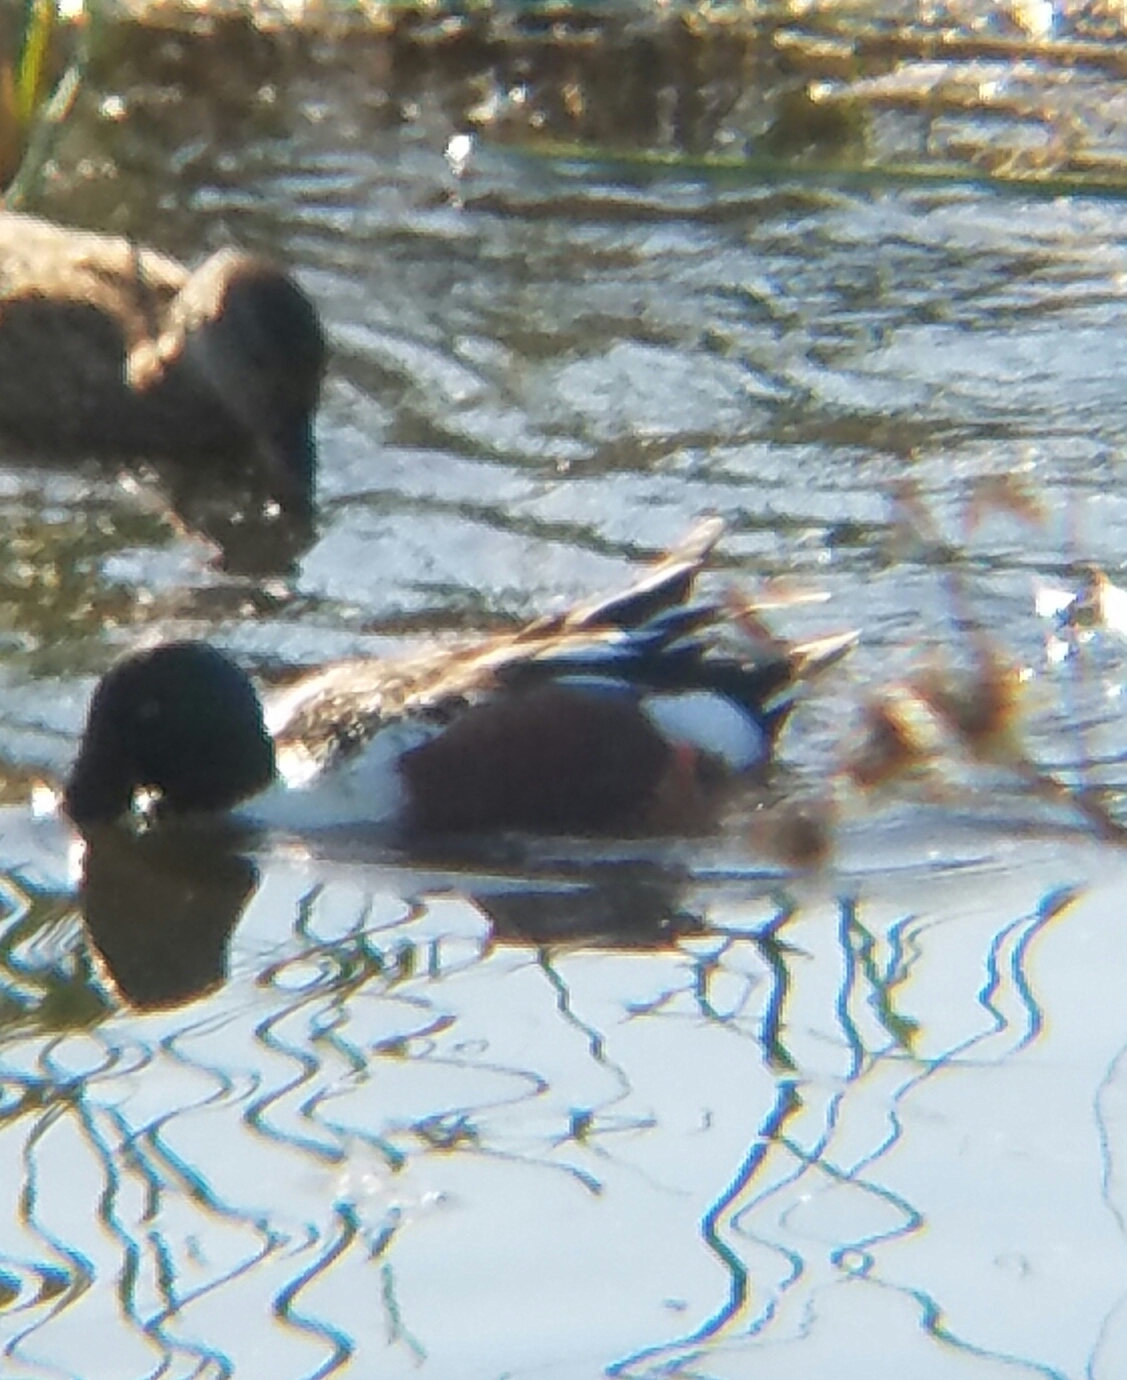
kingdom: Animalia
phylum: Chordata
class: Aves
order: Anseriformes
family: Anatidae
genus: Spatula
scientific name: Spatula clypeata
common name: Northern shoveler
